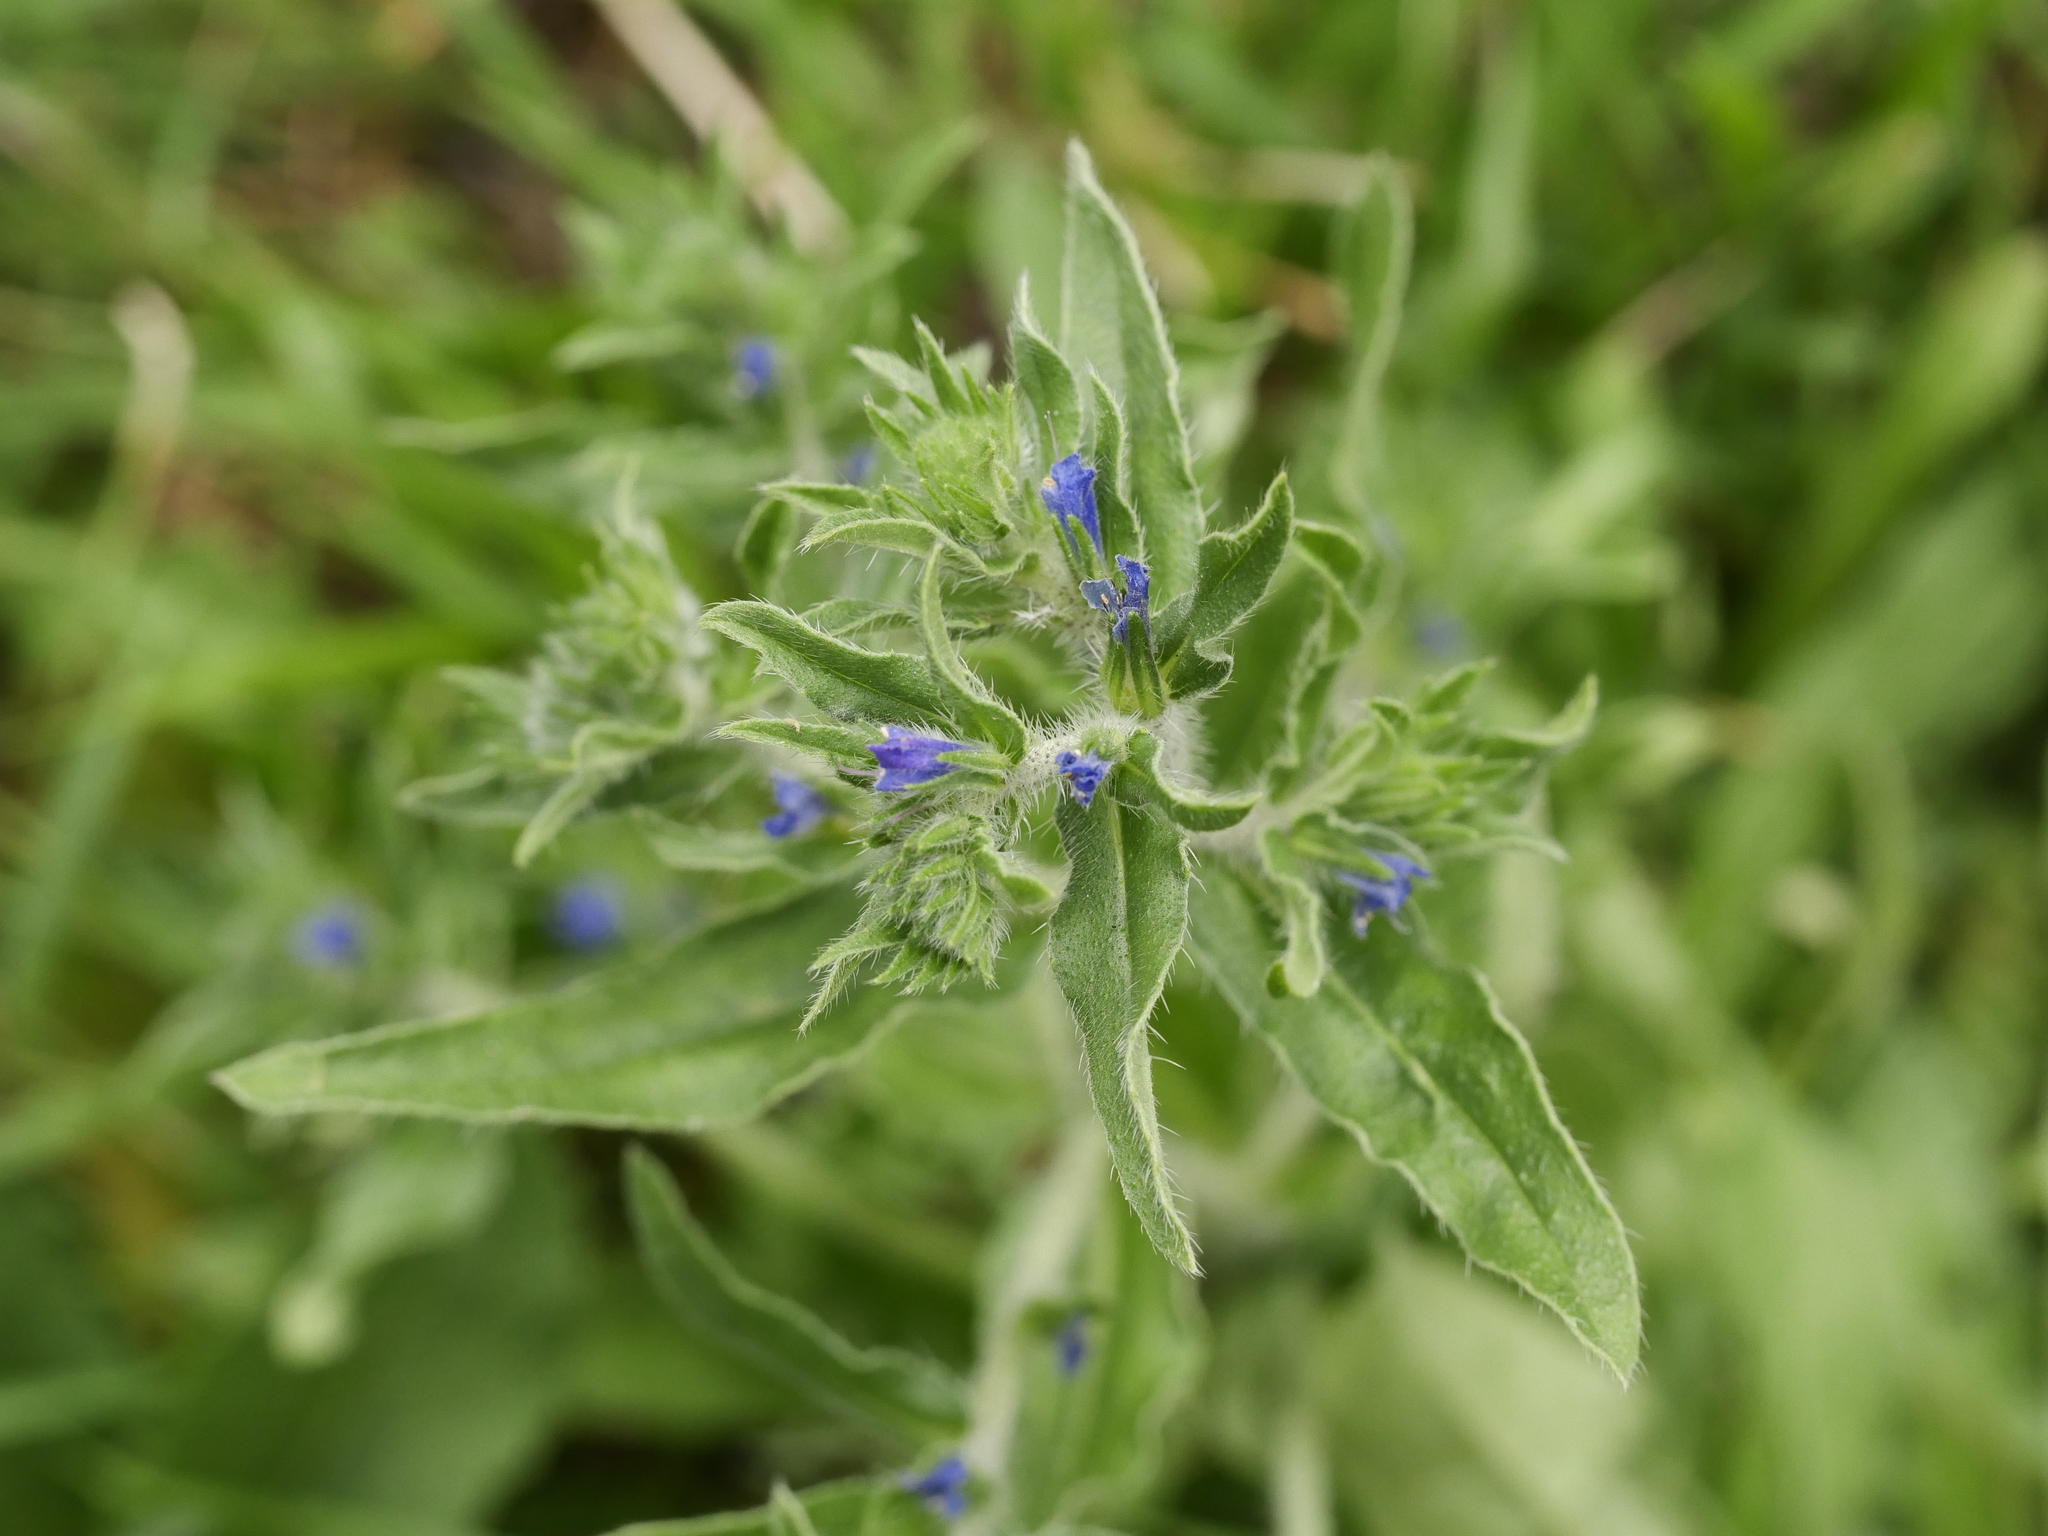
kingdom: Plantae
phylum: Tracheophyta
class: Magnoliopsida
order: Boraginales
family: Boraginaceae
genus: Echium
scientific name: Echium vulgare
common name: Common viper's bugloss
